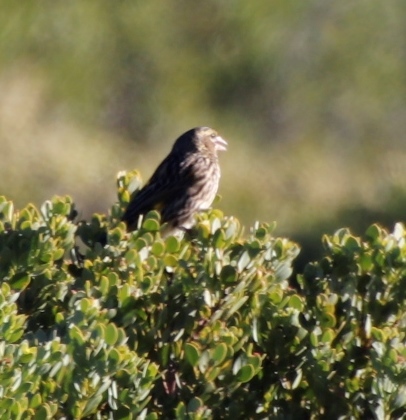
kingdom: Animalia
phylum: Chordata
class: Aves
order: Passeriformes
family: Ploceidae
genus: Euplectes
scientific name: Euplectes capensis
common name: Yellow bishop
